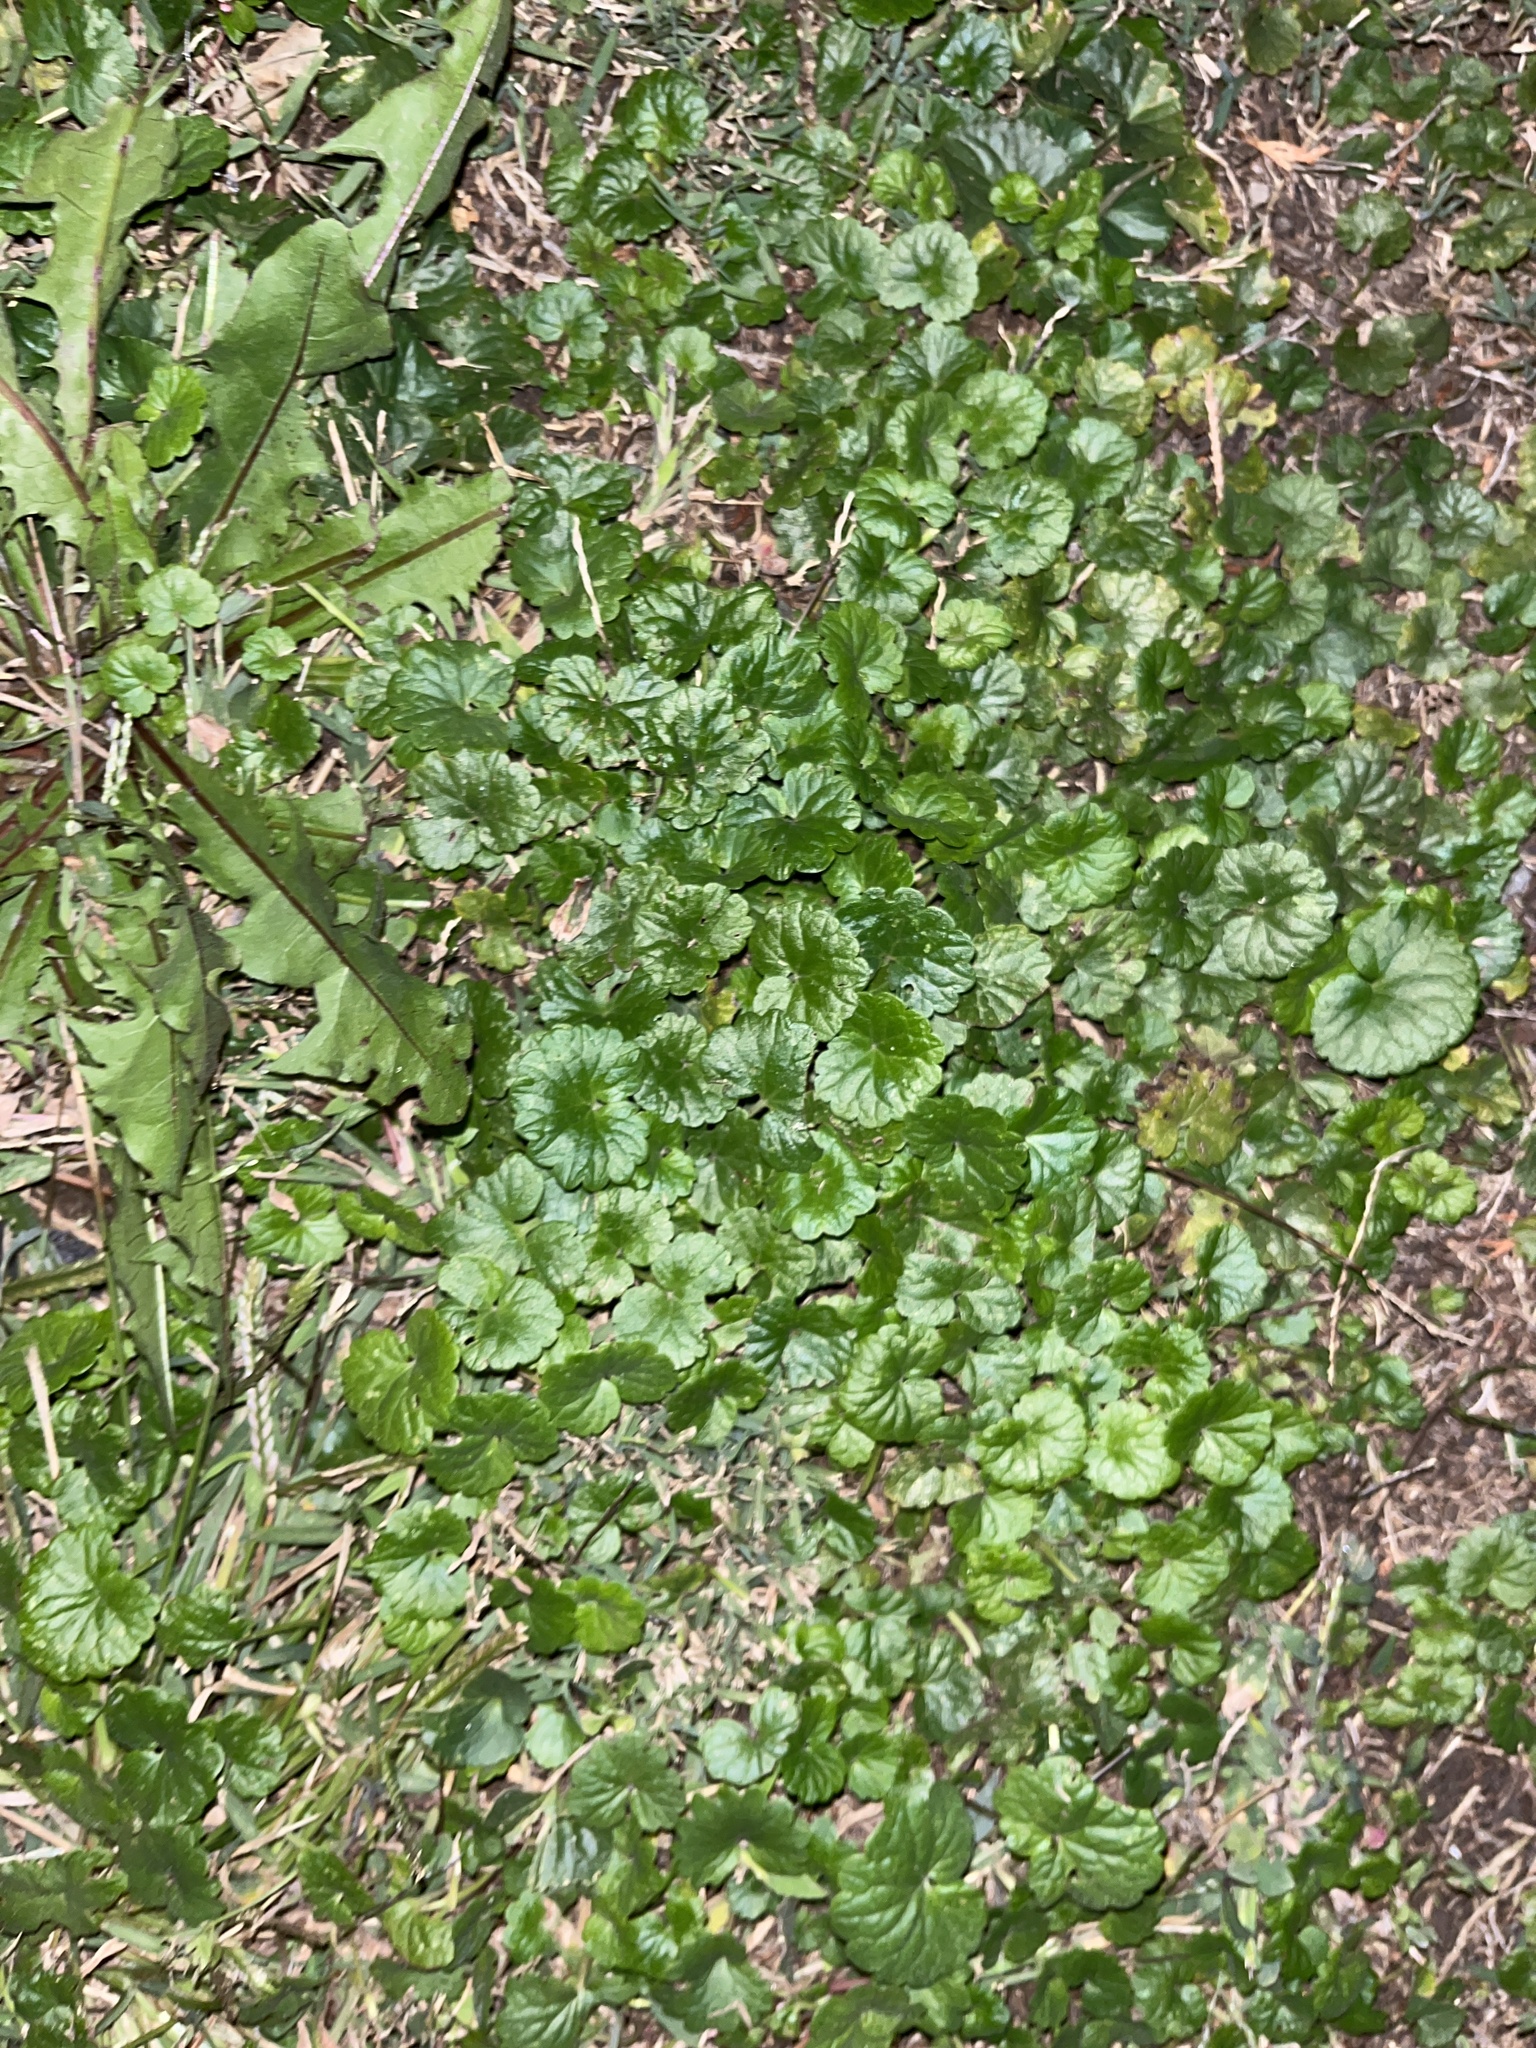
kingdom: Plantae
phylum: Tracheophyta
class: Magnoliopsida
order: Lamiales
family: Lamiaceae
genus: Glechoma
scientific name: Glechoma hederacea
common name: Ground ivy
